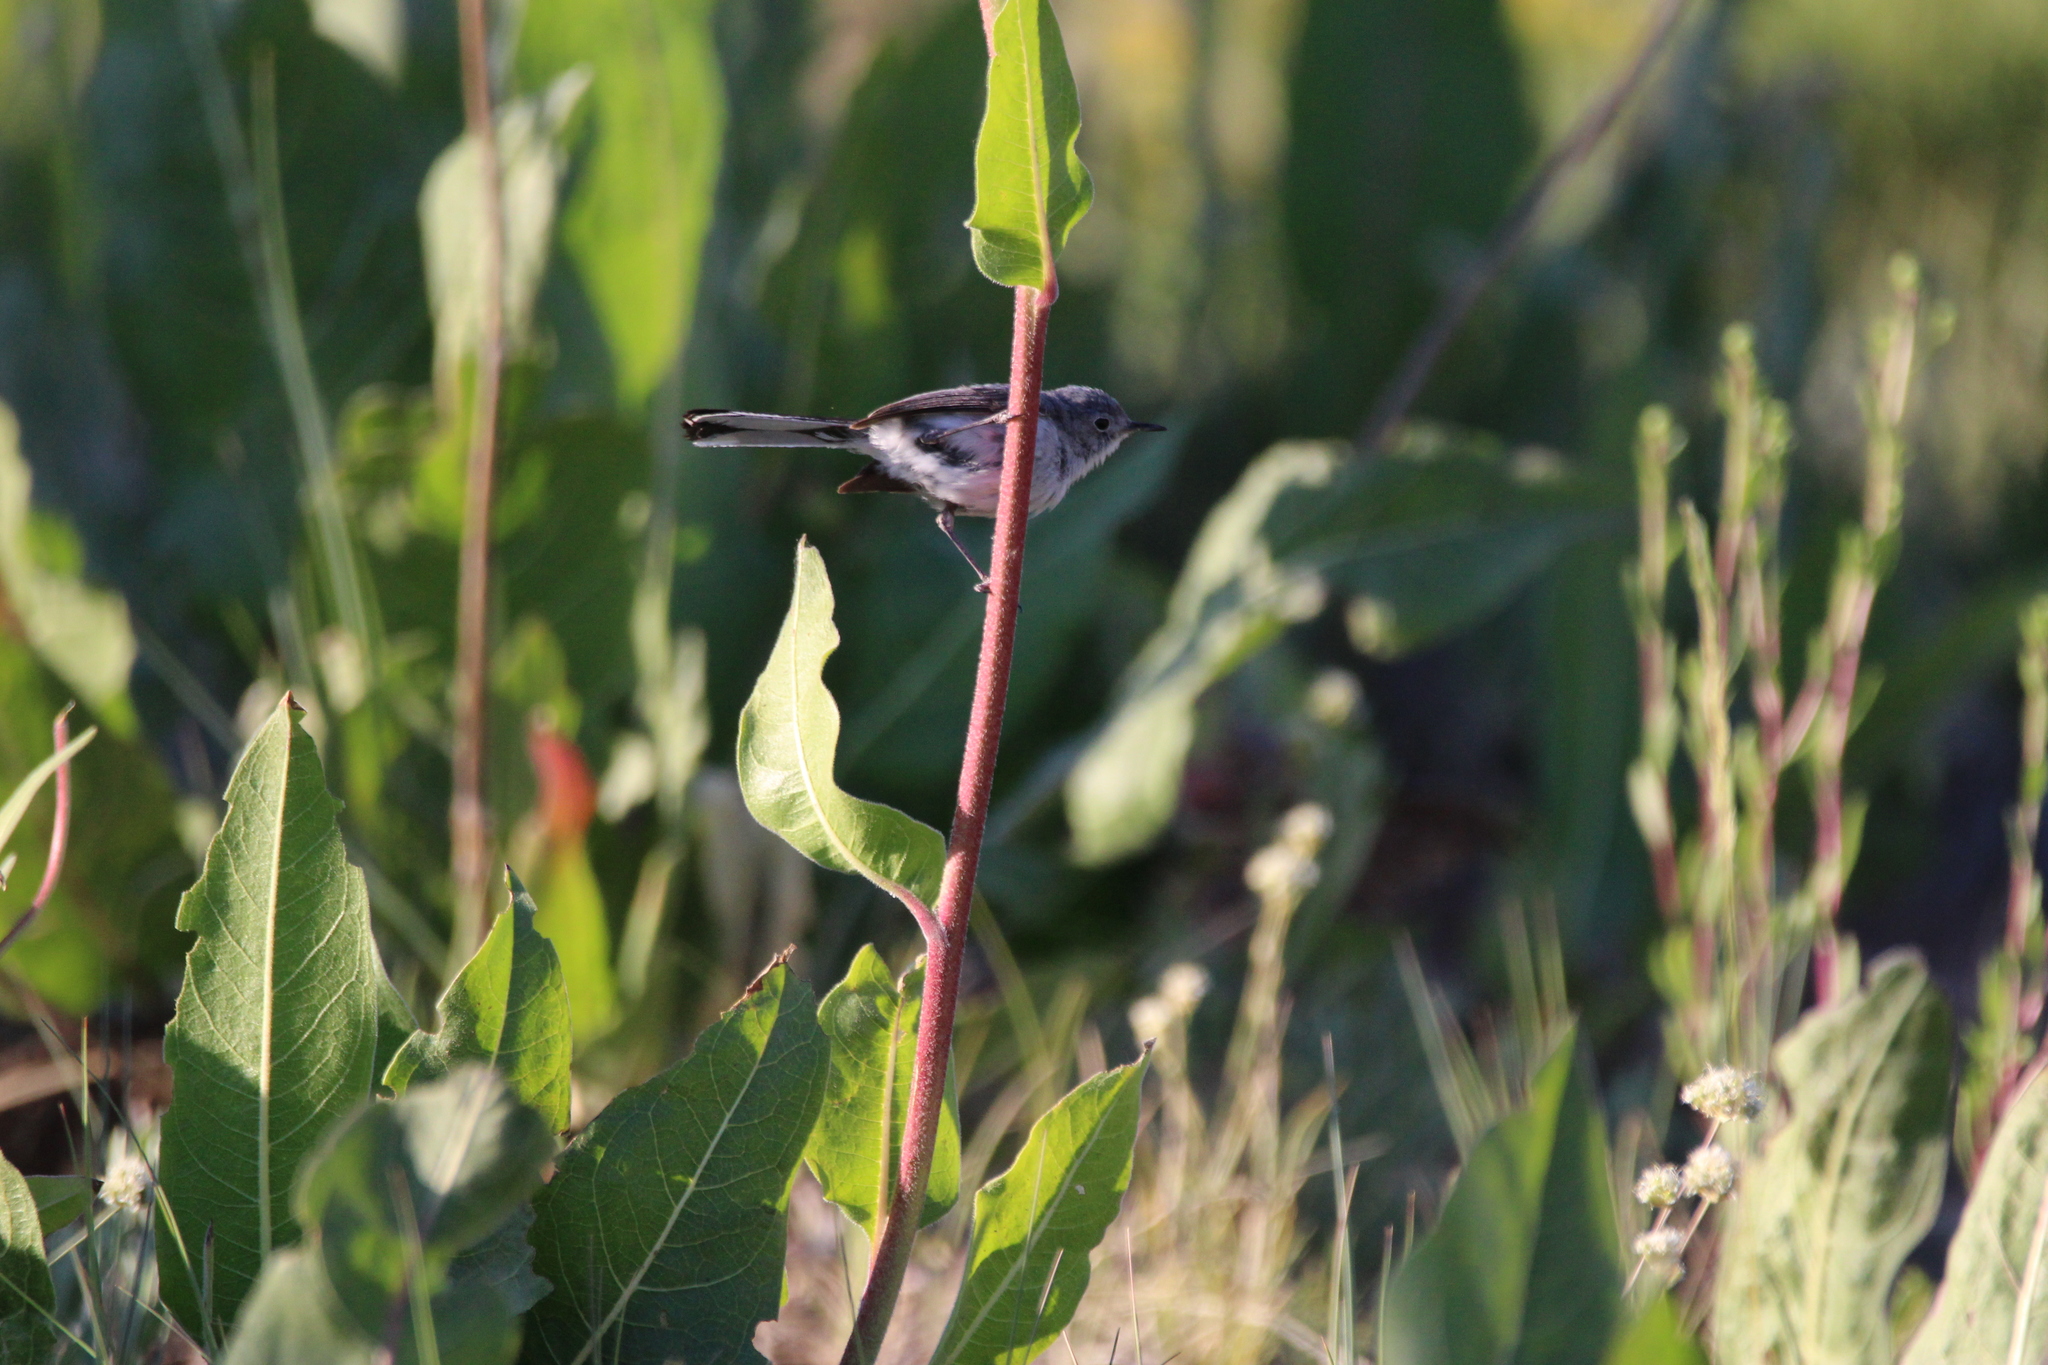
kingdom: Animalia
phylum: Chordata
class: Aves
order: Passeriformes
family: Polioptilidae
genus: Polioptila
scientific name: Polioptila caerulea
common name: Blue-gray gnatcatcher
